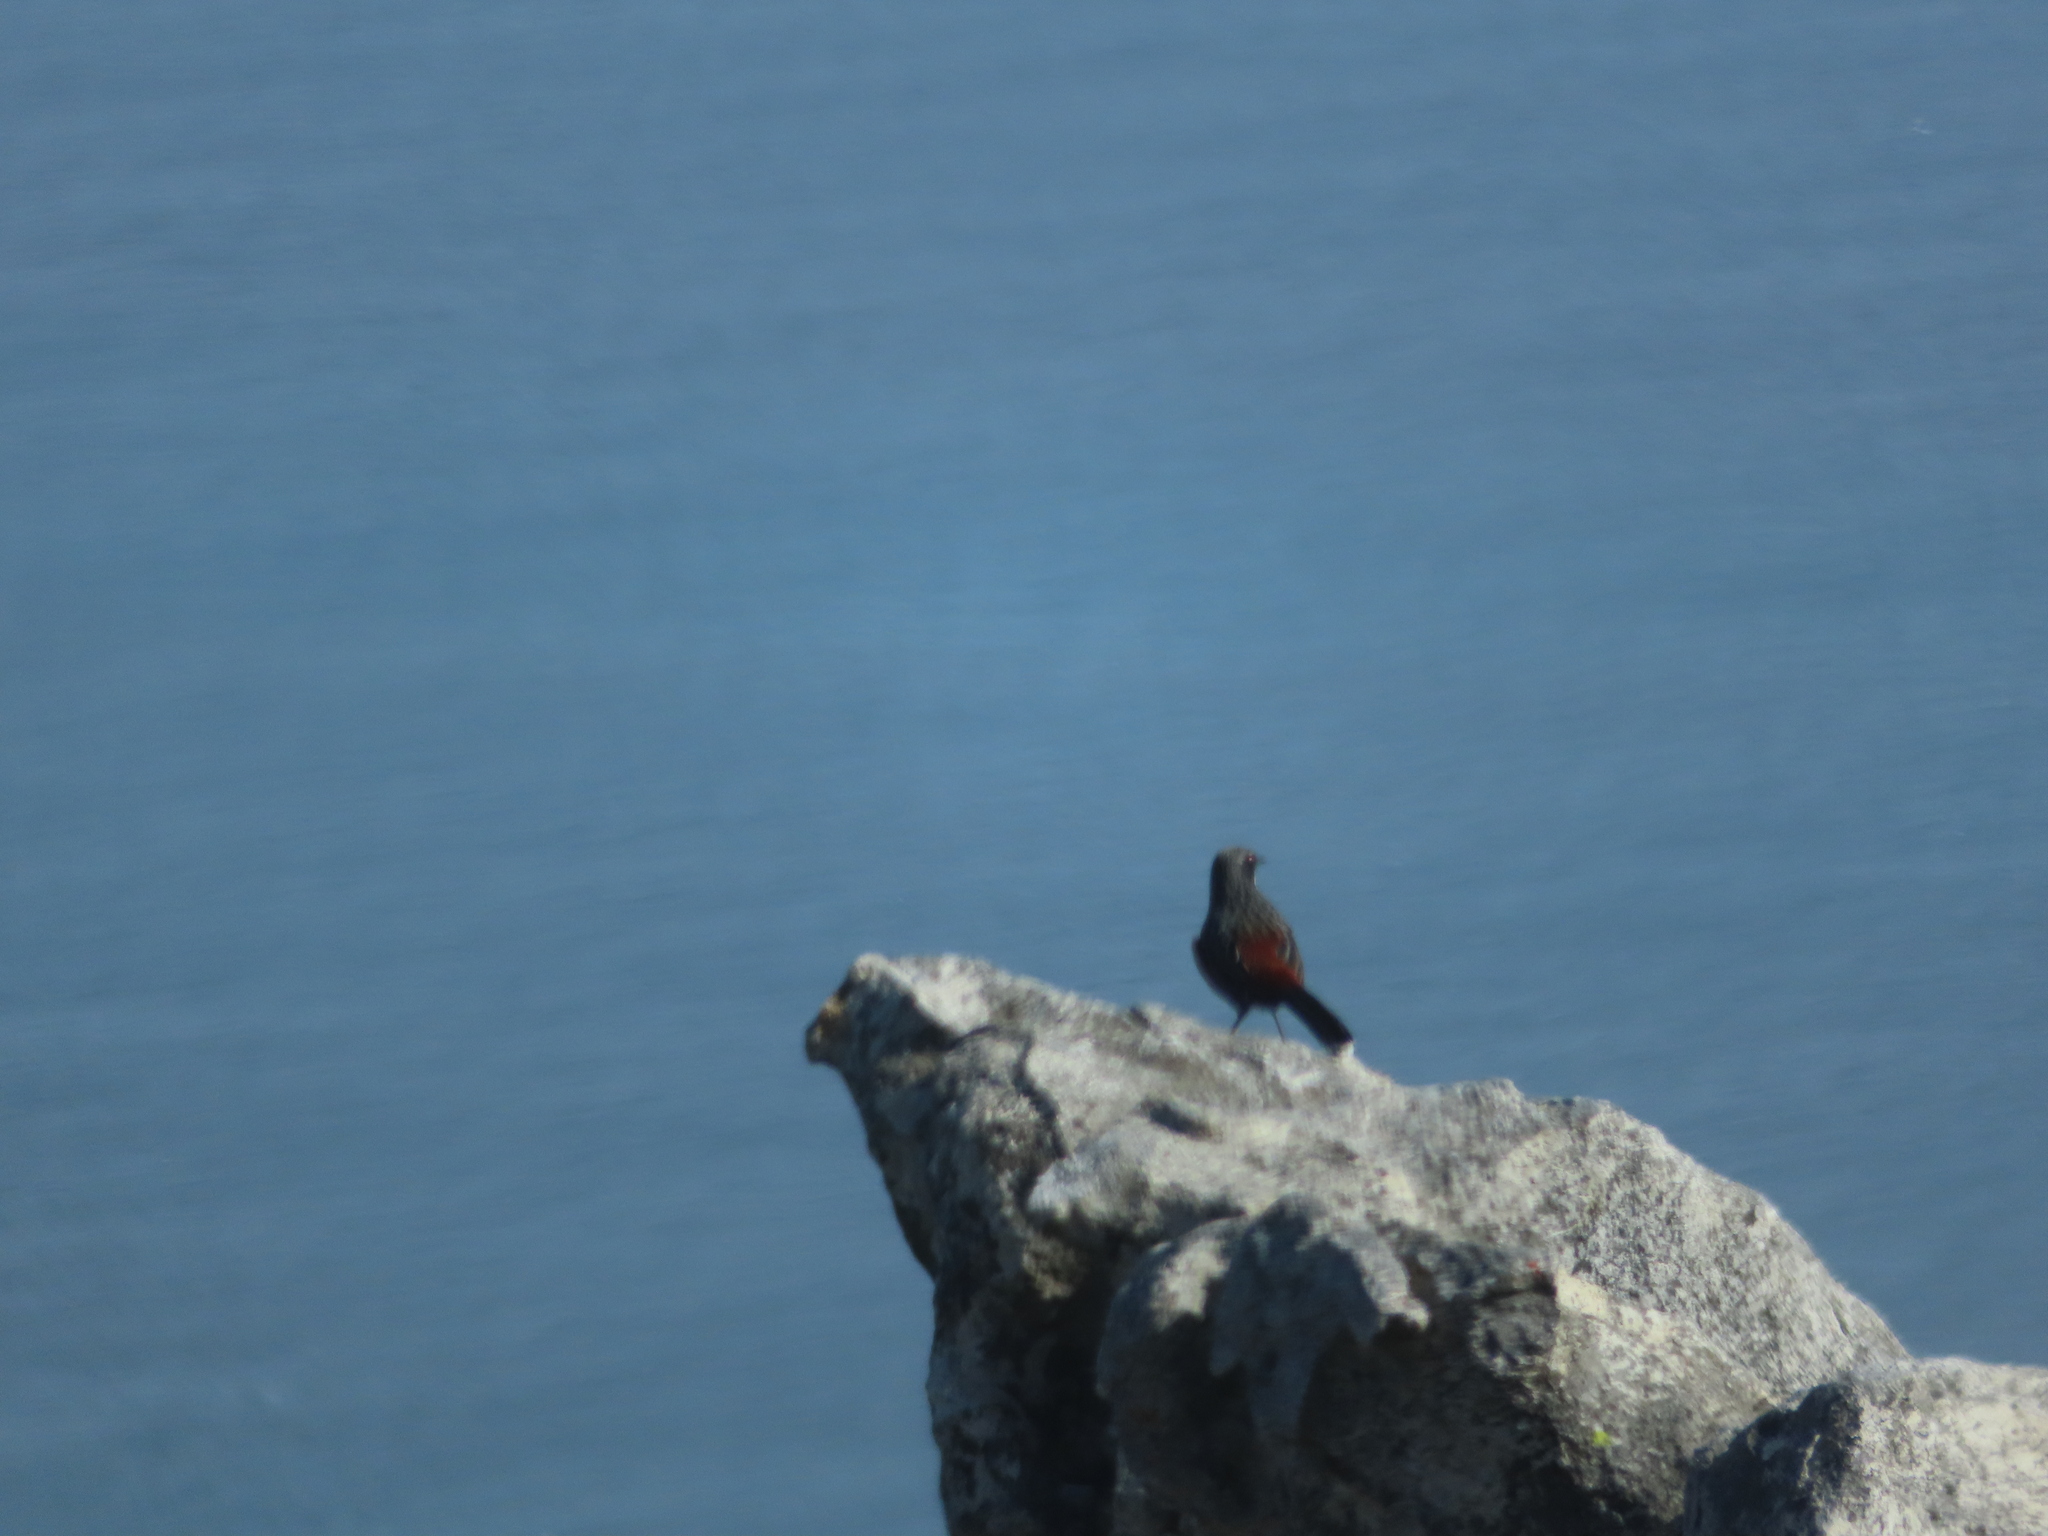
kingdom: Animalia
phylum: Chordata
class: Aves
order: Passeriformes
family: Chaetopidae
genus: Chaetops
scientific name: Chaetops frenatus
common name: Cape rockjumper
